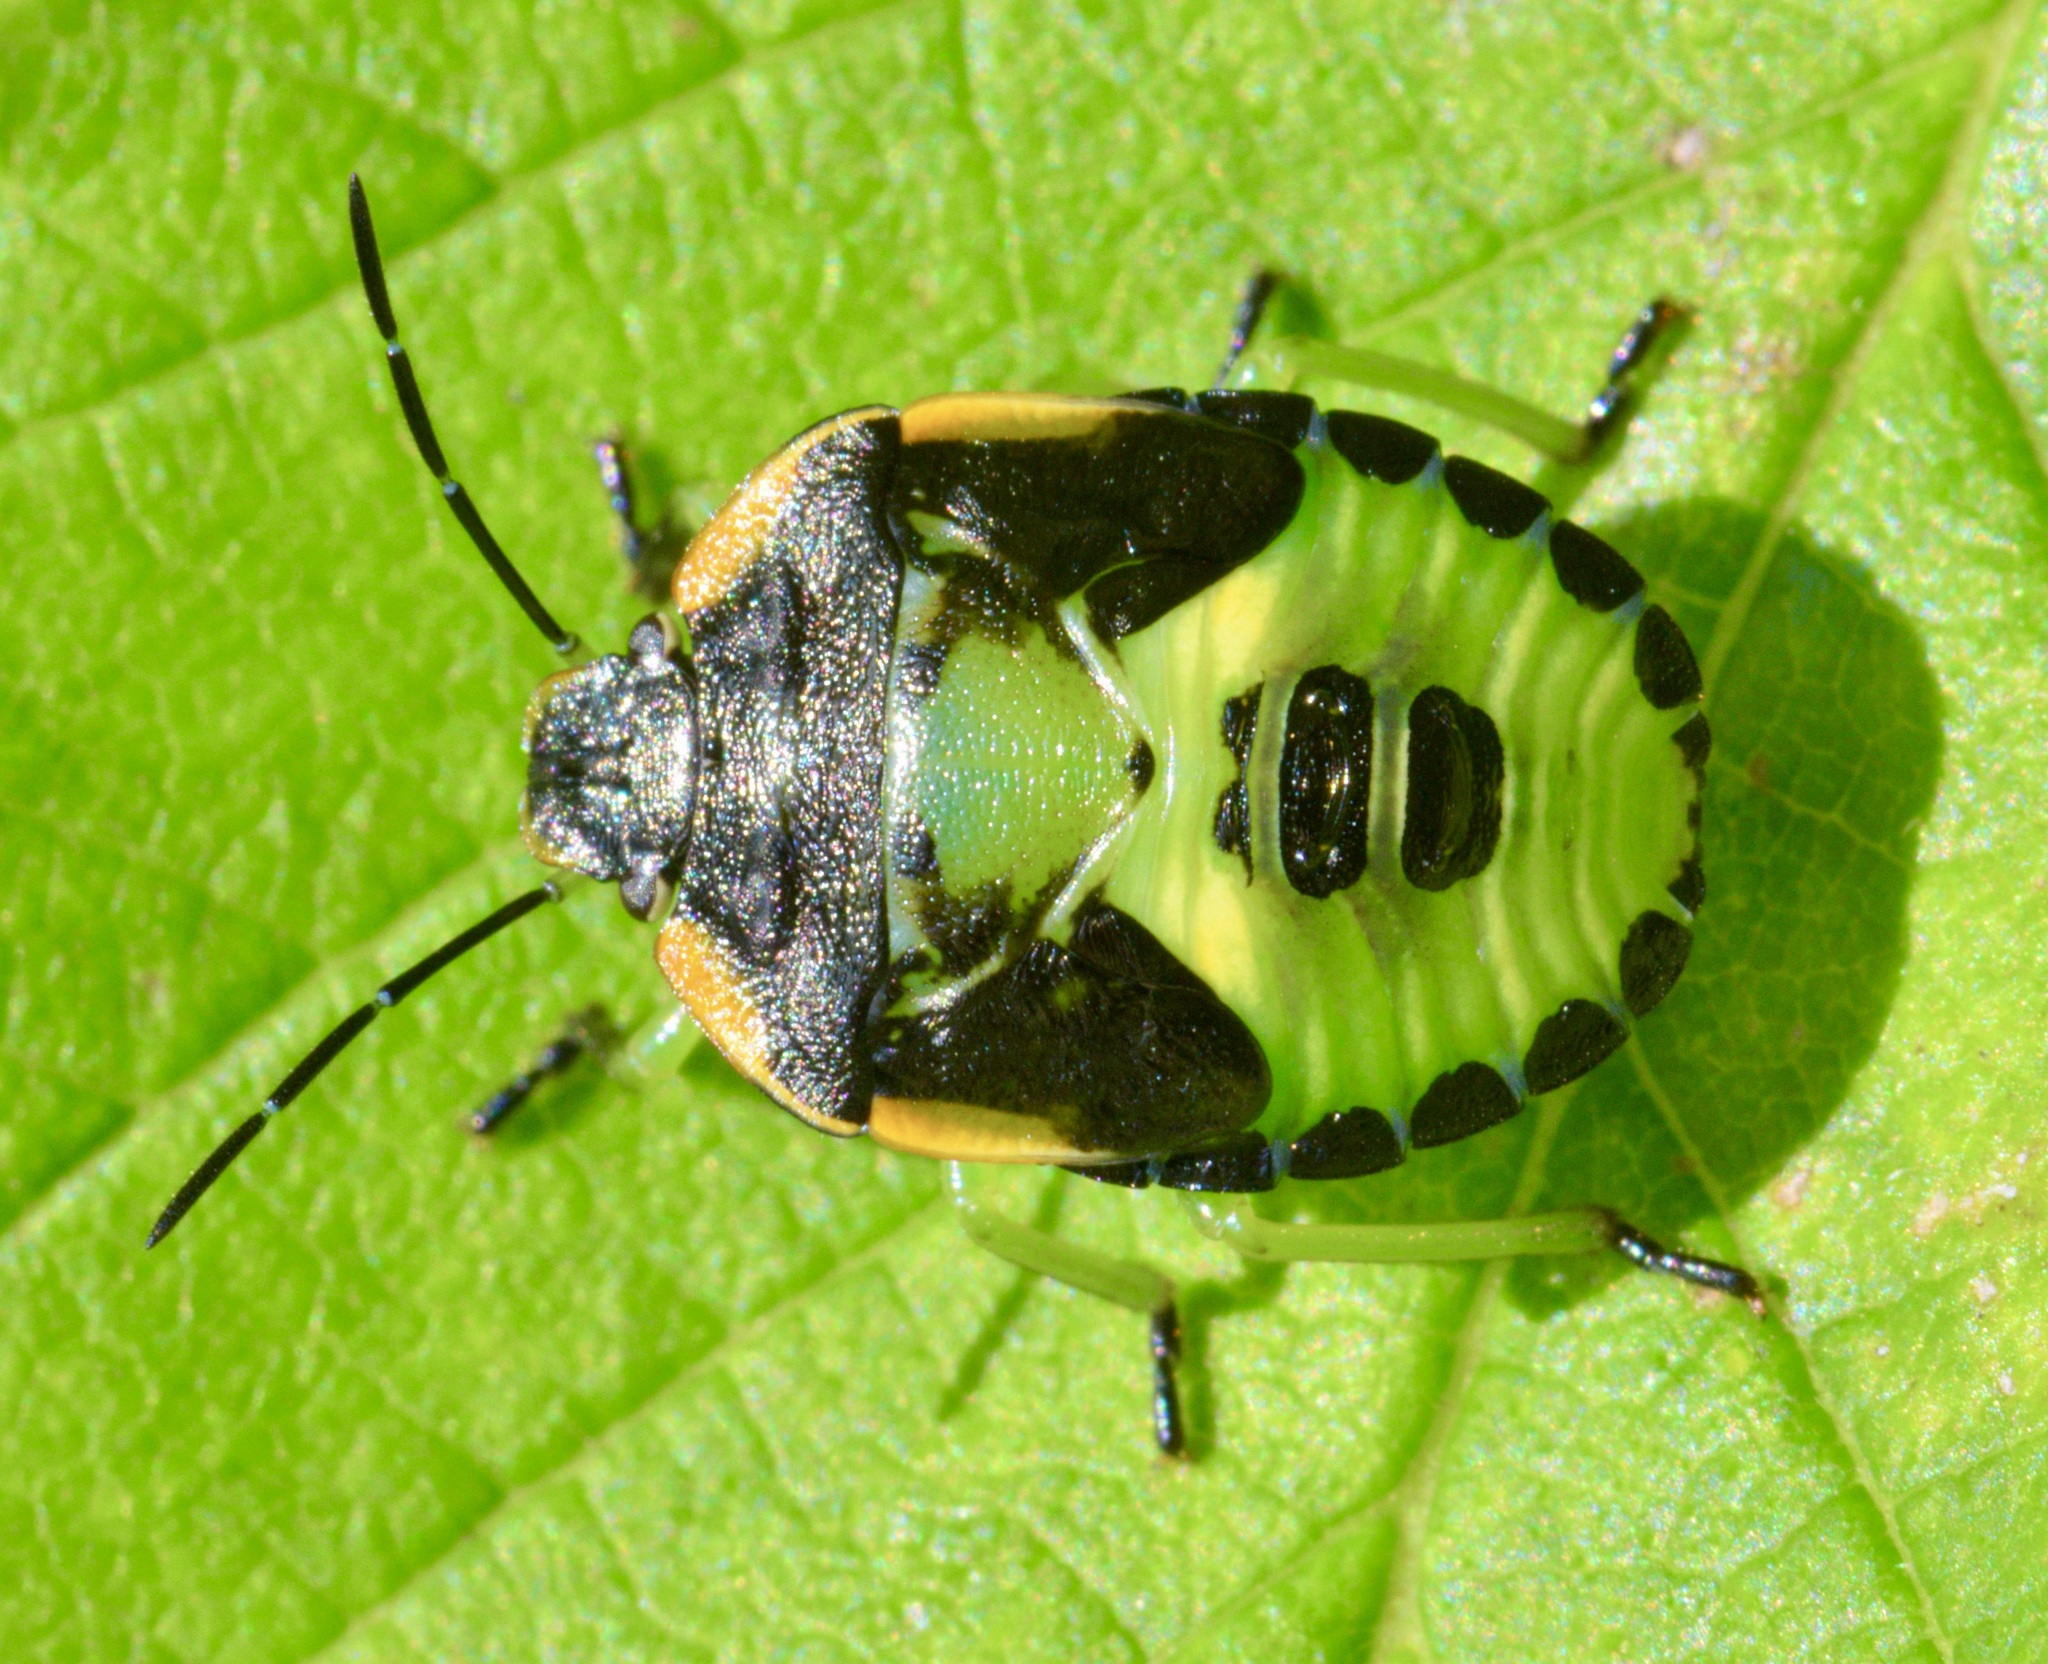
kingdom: Animalia
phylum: Arthropoda
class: Insecta
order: Hemiptera
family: Pentatomidae
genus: Chinavia
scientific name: Chinavia hilaris
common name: Green stink bug
